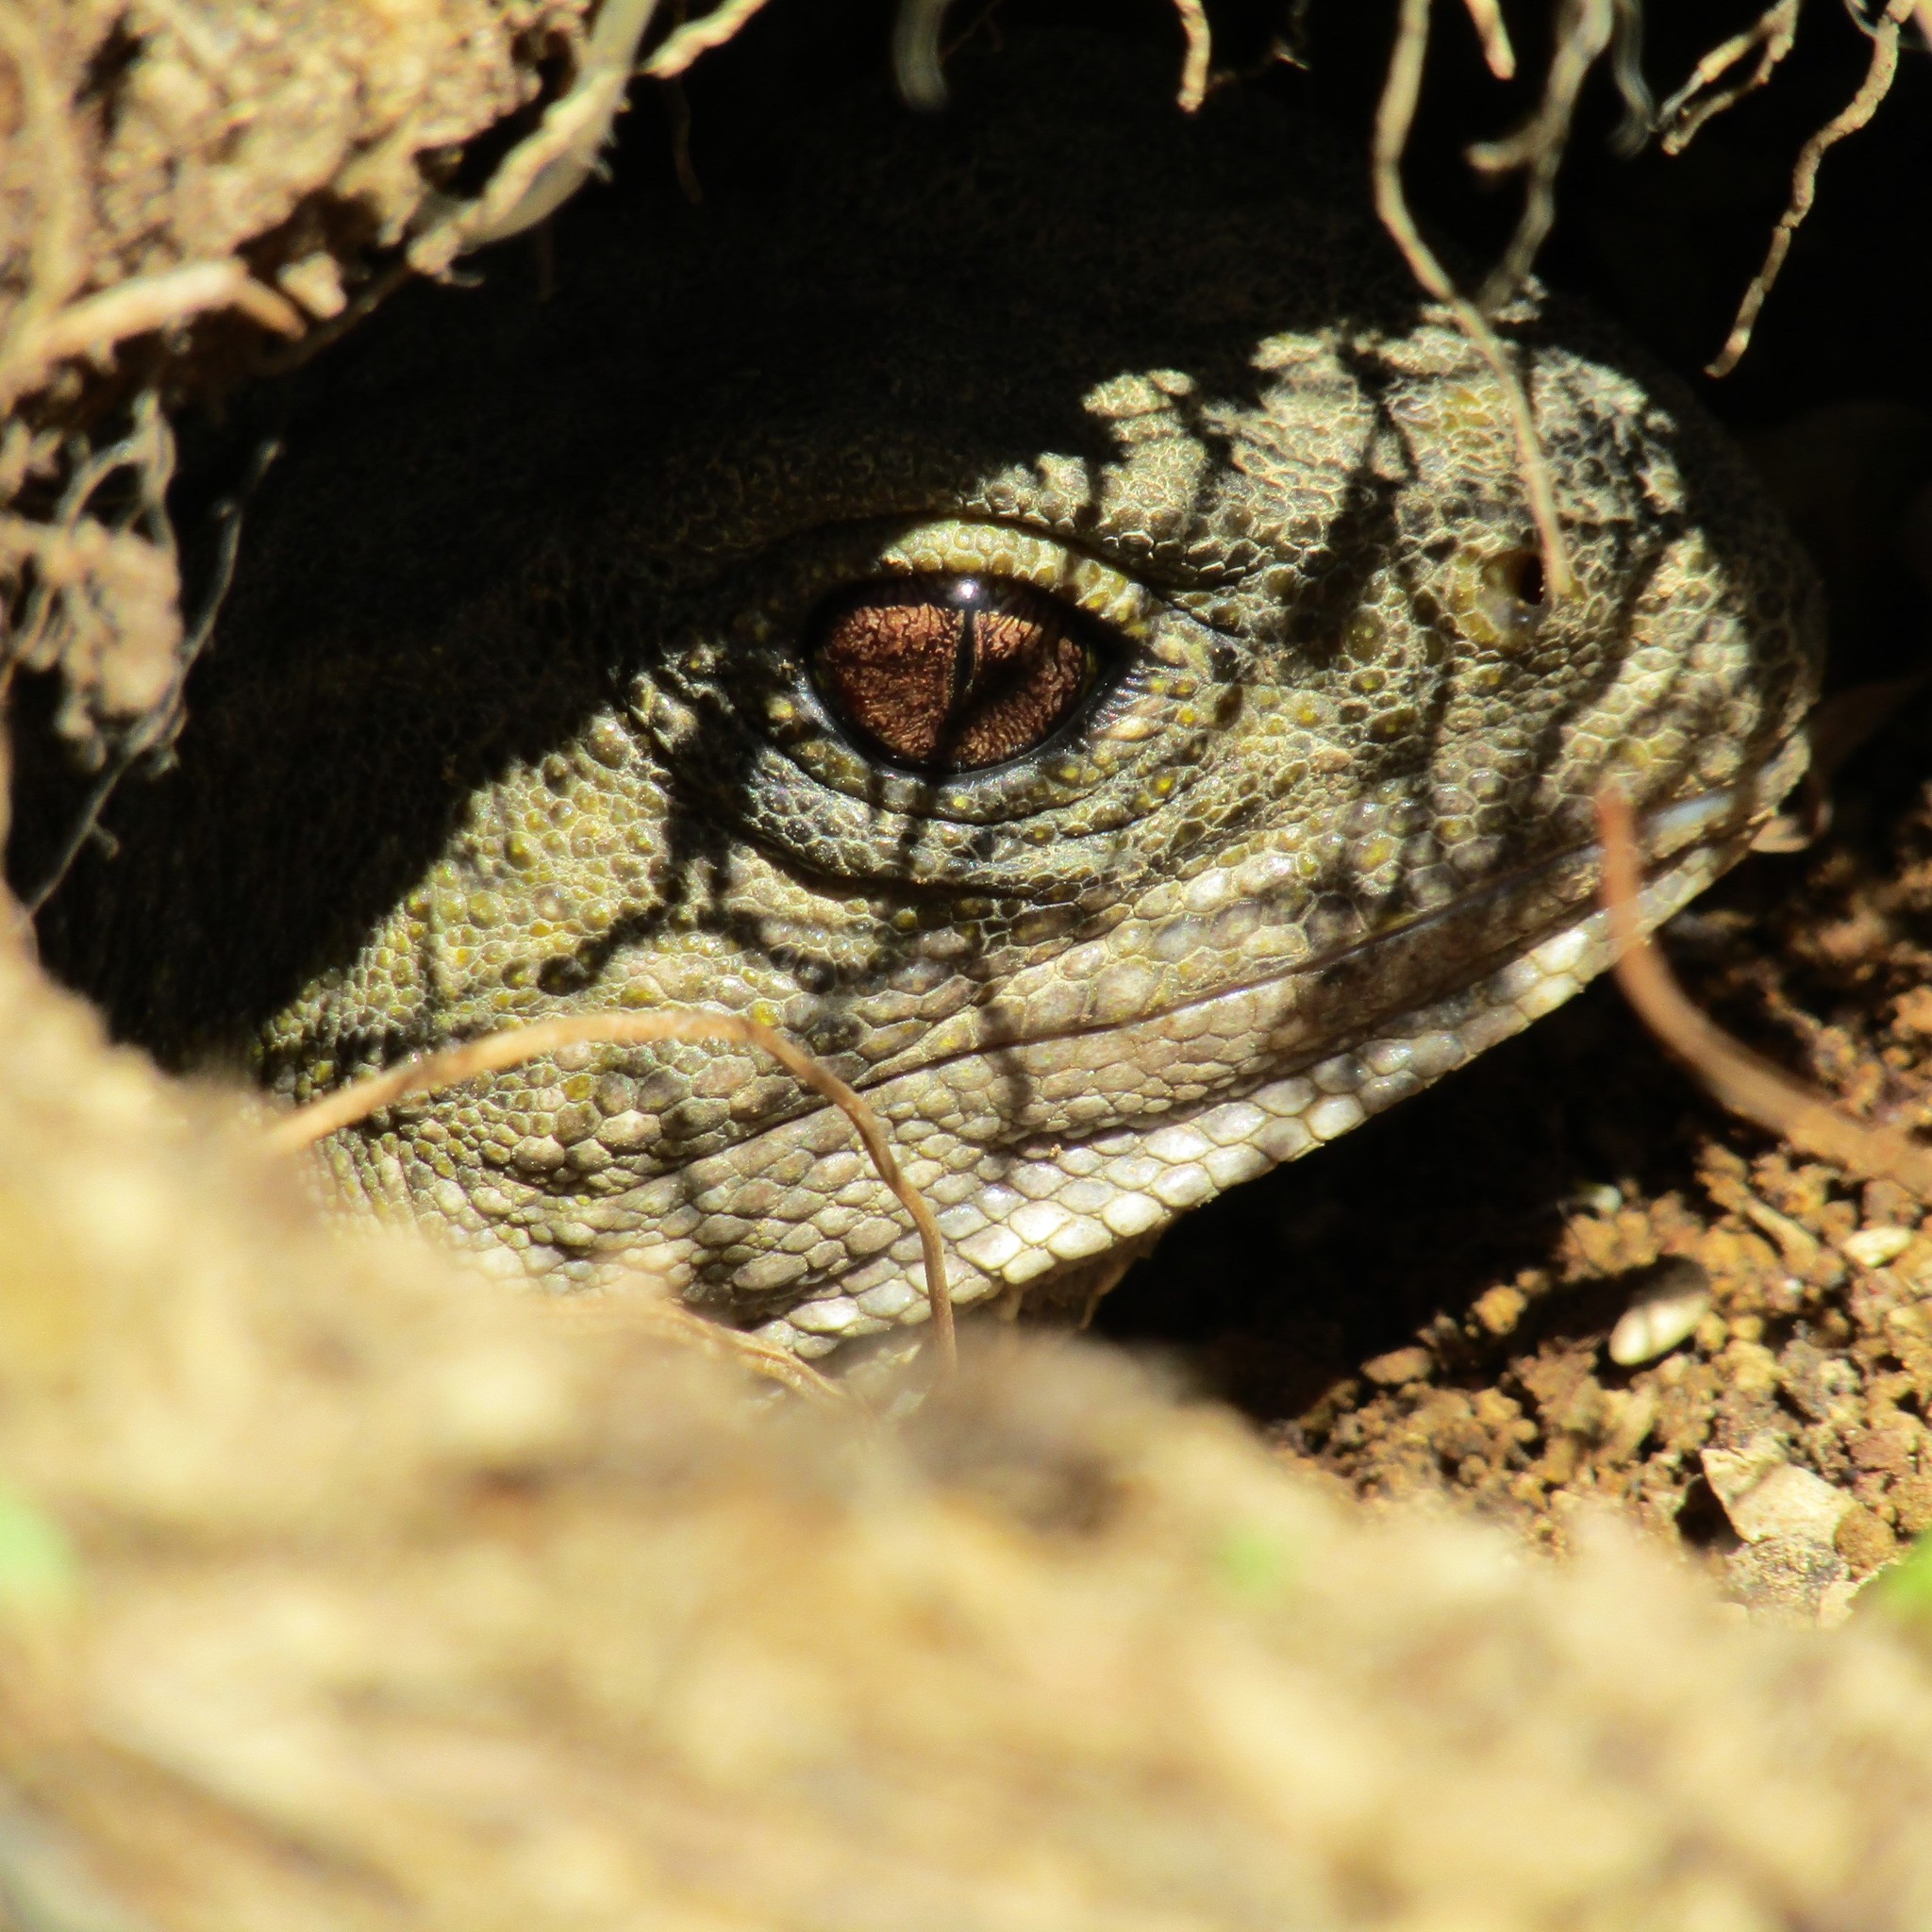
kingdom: Animalia
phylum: Chordata
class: Sphenodontia
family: Sphenodontidae
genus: Sphenodon
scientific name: Sphenodon punctatus
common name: Tuatara
